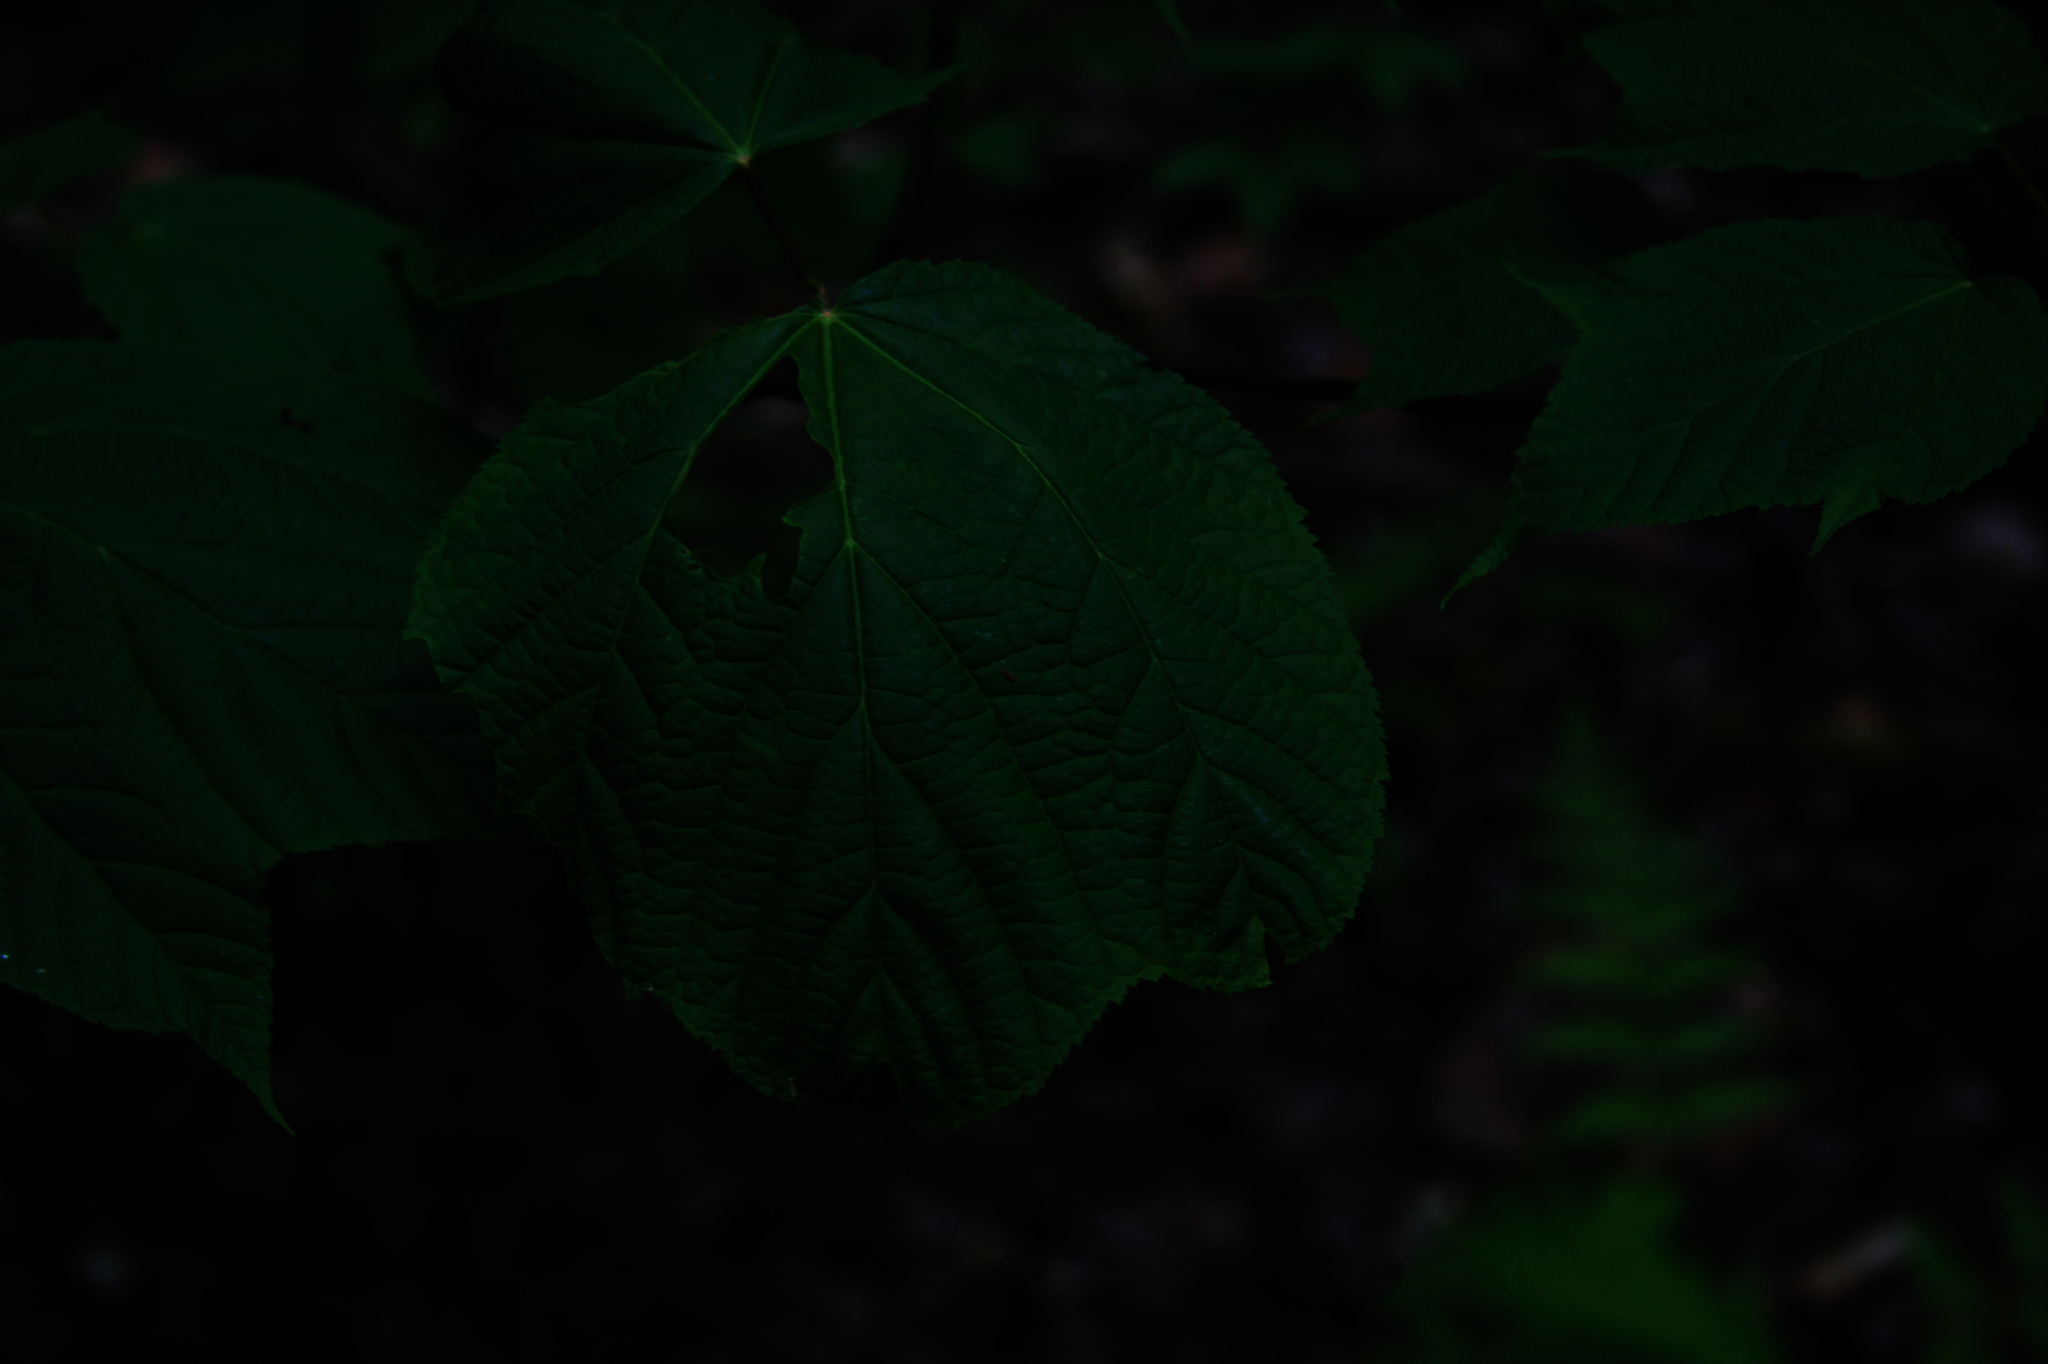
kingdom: Plantae
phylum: Tracheophyta
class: Magnoliopsida
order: Sapindales
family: Sapindaceae
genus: Acer
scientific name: Acer pensylvanicum
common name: Moosewood
